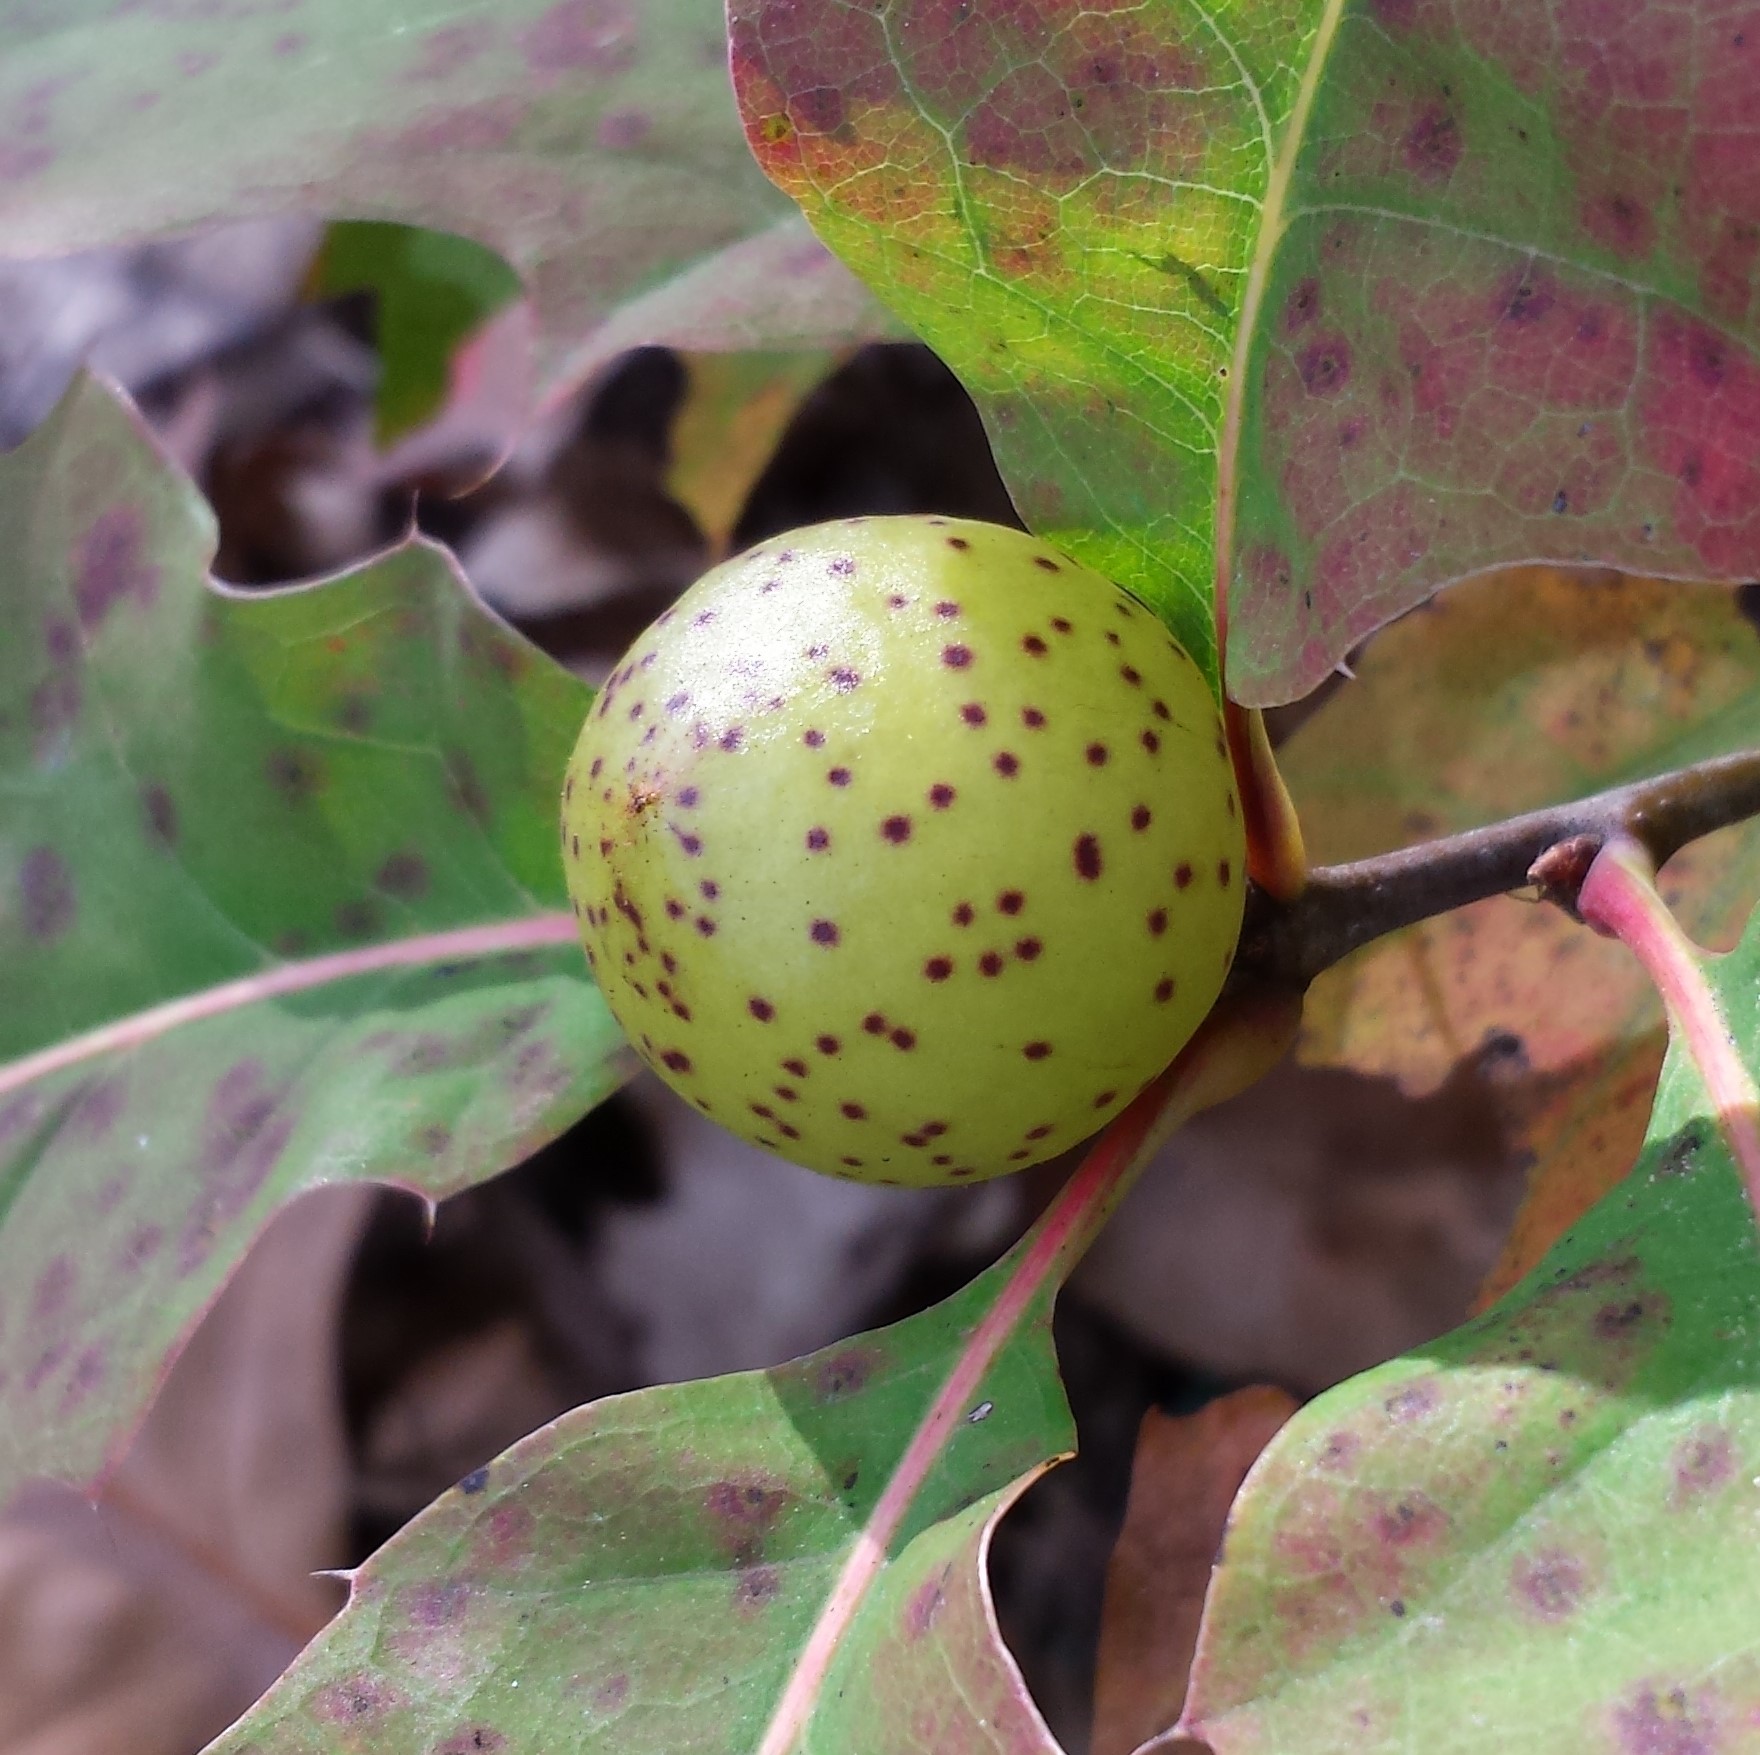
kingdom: Animalia
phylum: Arthropoda
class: Insecta
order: Hymenoptera
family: Cynipidae
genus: Amphibolips
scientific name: Amphibolips
